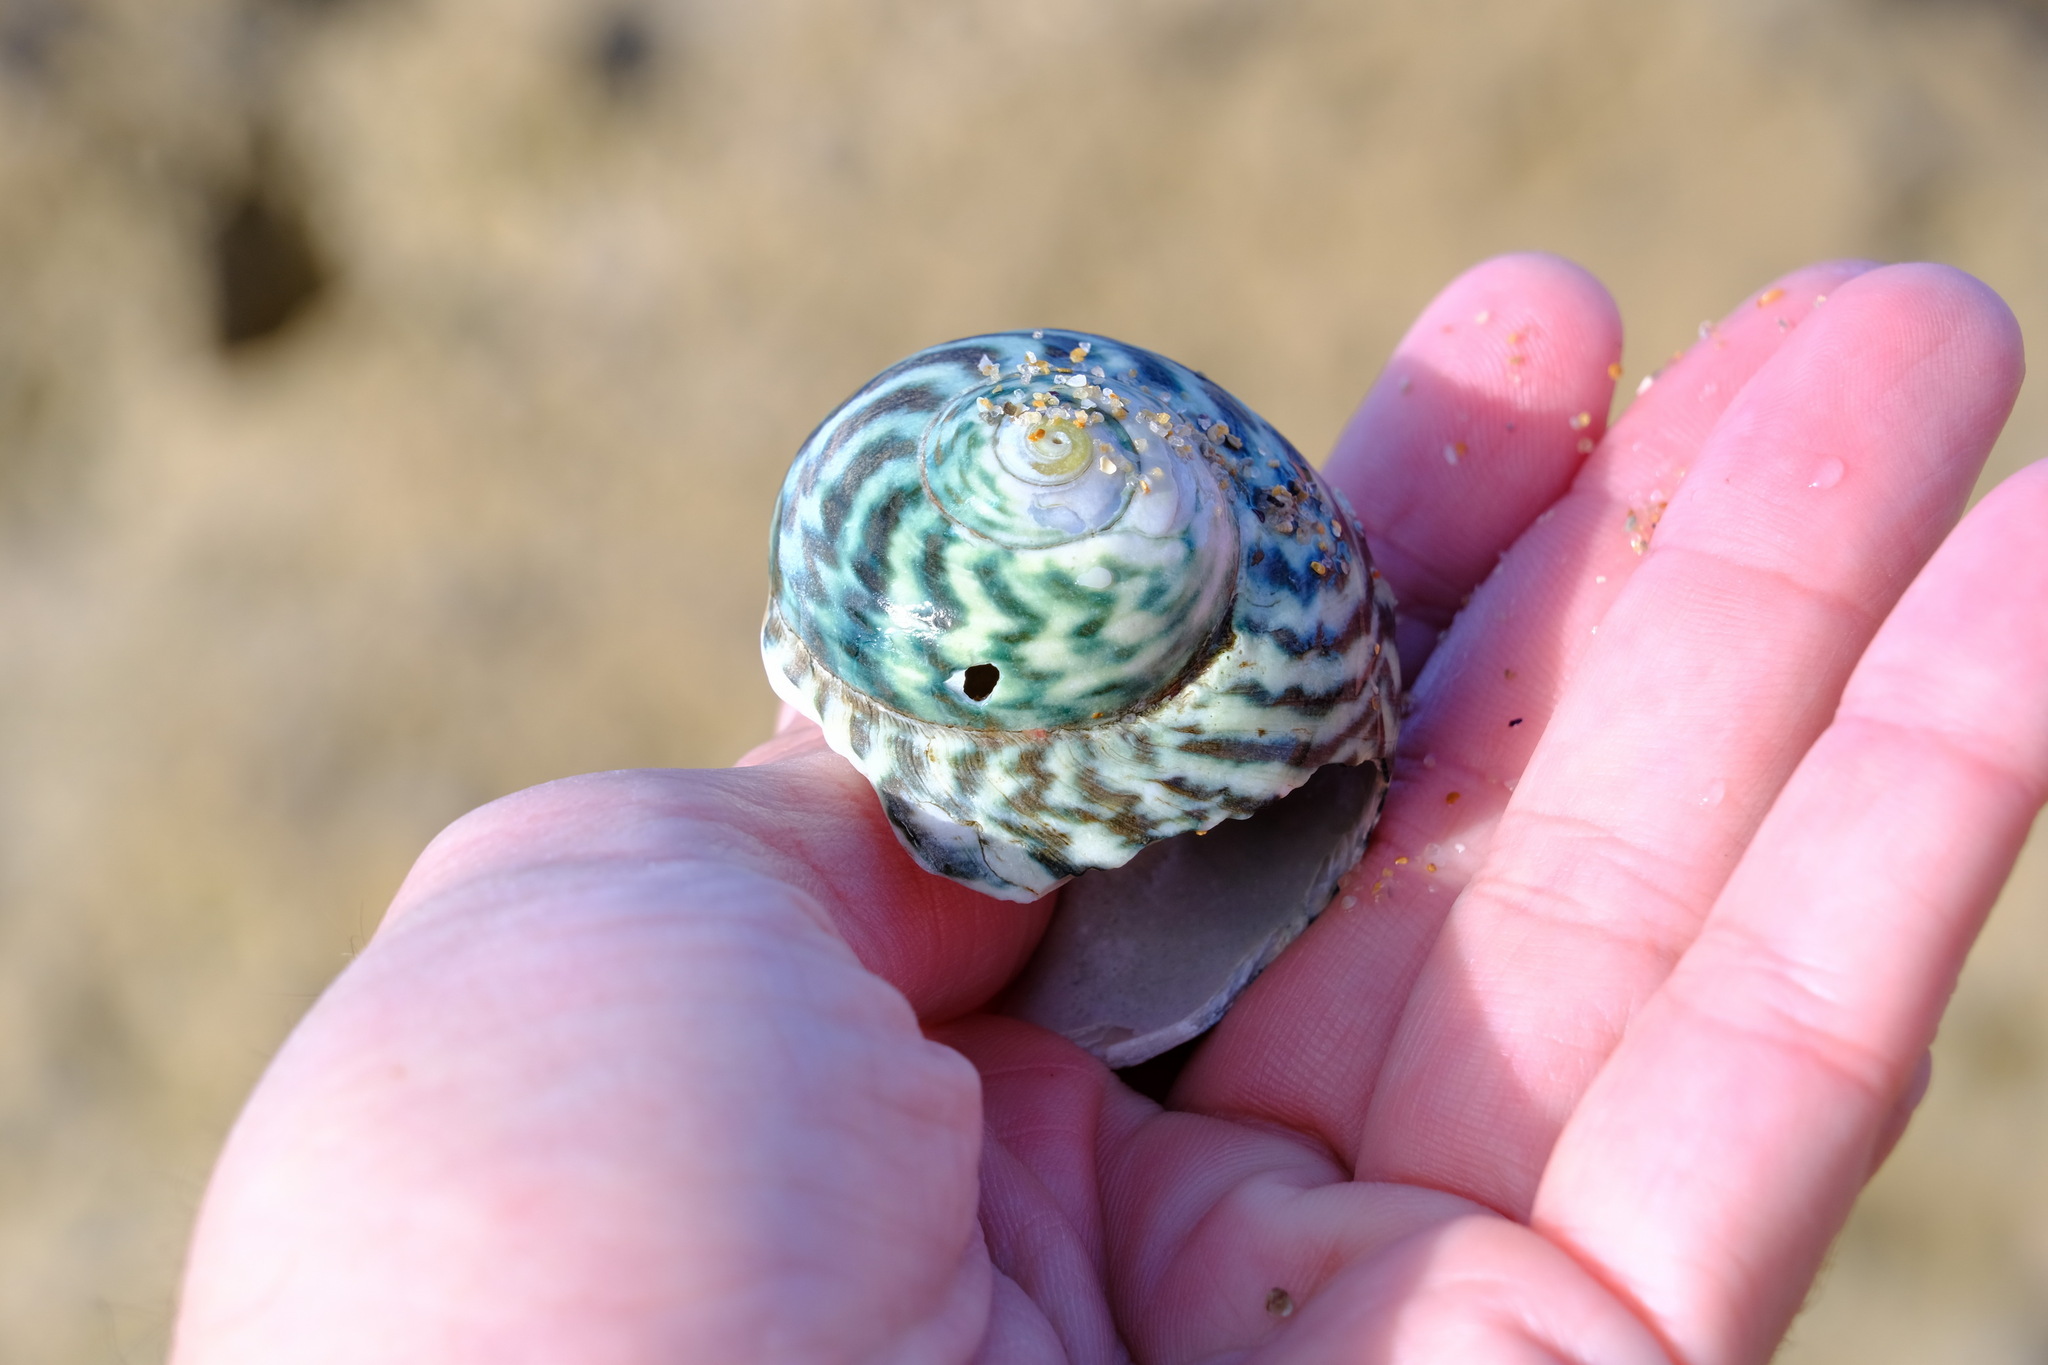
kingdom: Animalia
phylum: Mollusca
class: Gastropoda
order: Trochida
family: Turbinidae
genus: Lunella
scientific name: Lunella undulata
